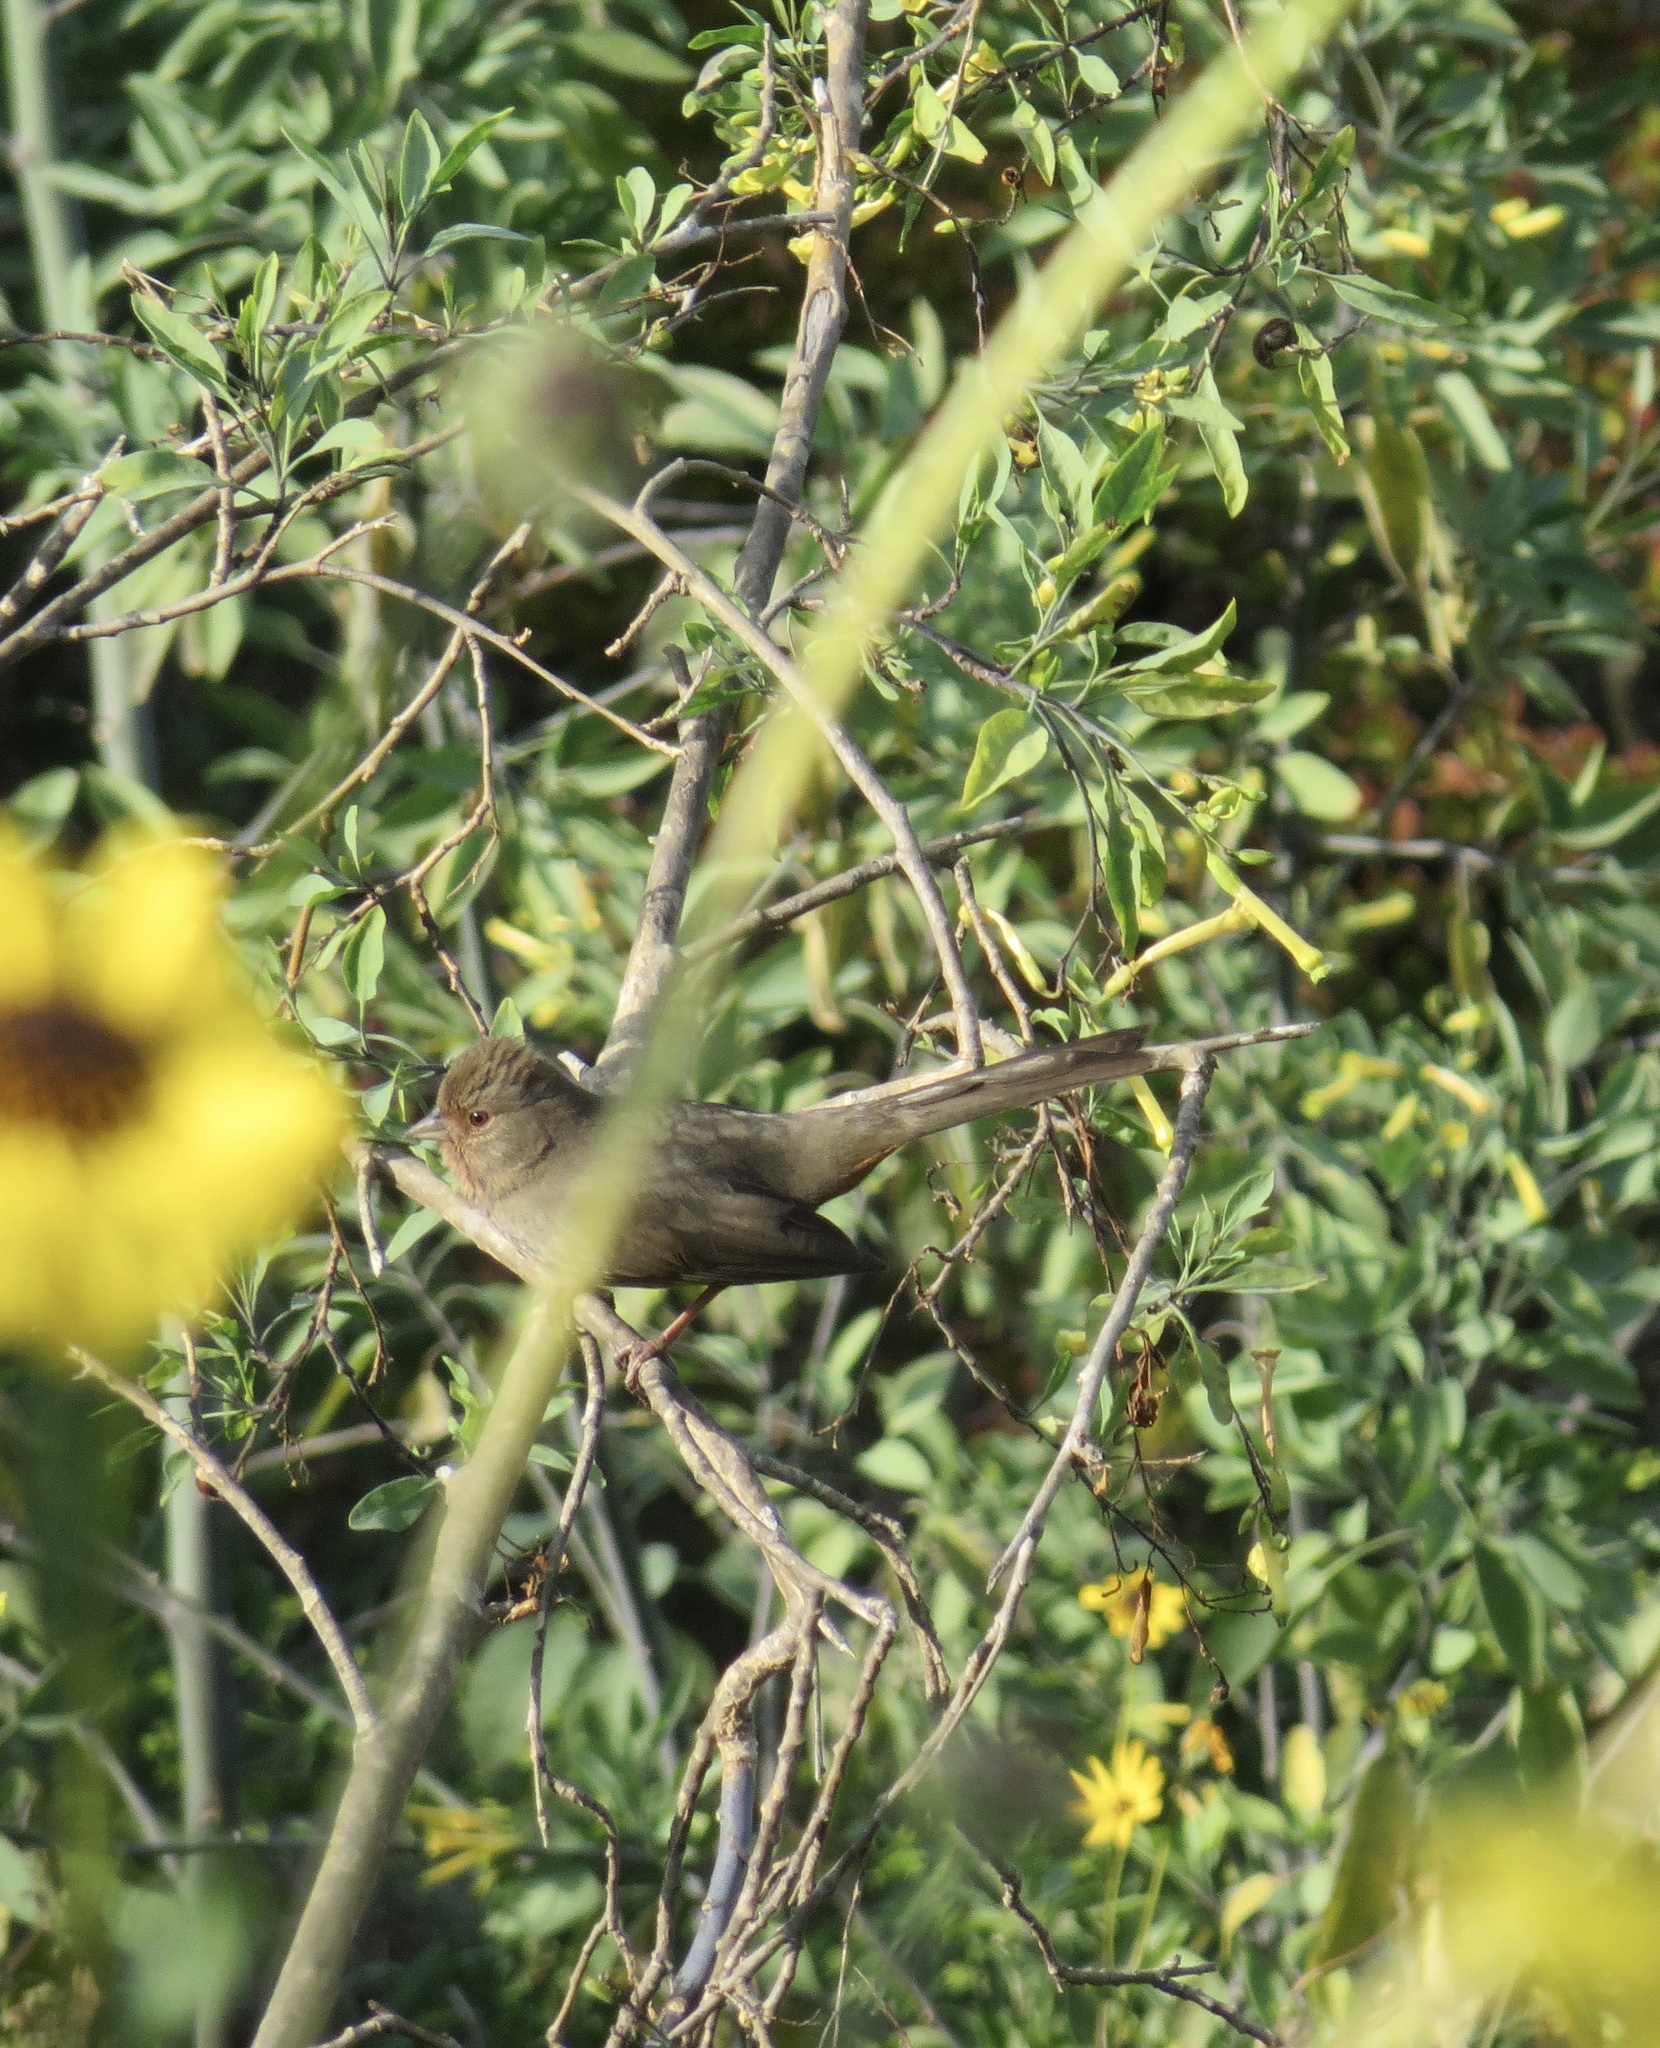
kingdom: Animalia
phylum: Chordata
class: Aves
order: Passeriformes
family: Passerellidae
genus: Melozone
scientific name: Melozone crissalis
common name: California towhee
